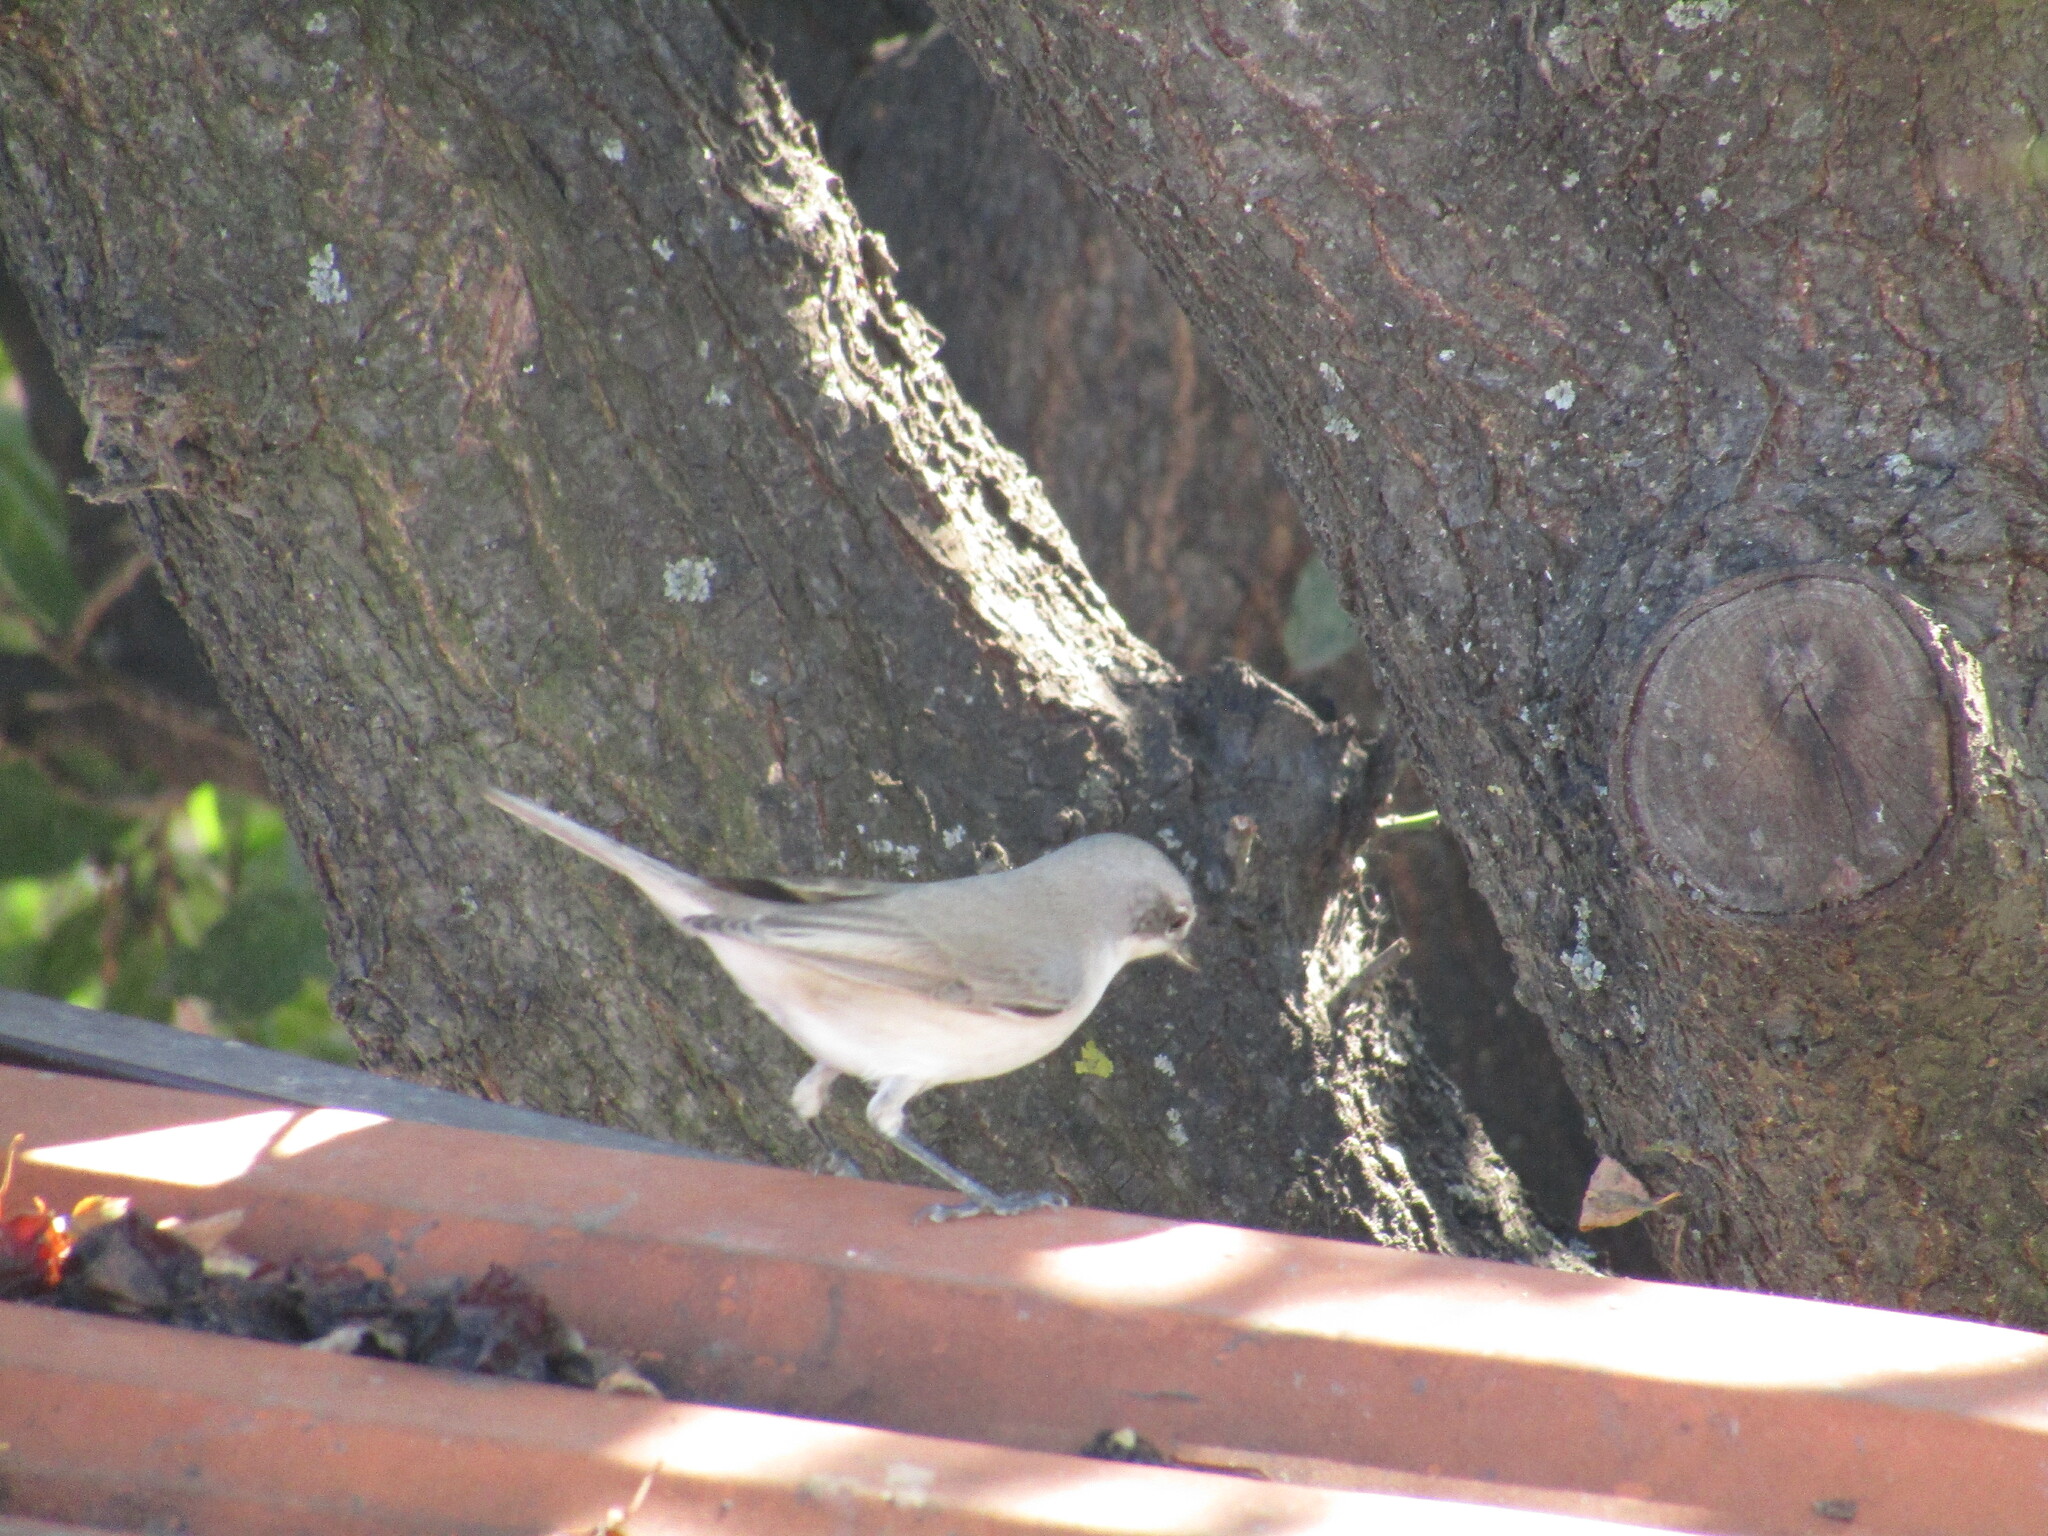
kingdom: Animalia
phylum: Chordata
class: Aves
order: Passeriformes
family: Sylviidae
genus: Sylvia
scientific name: Sylvia curruca
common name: Lesser whitethroat
